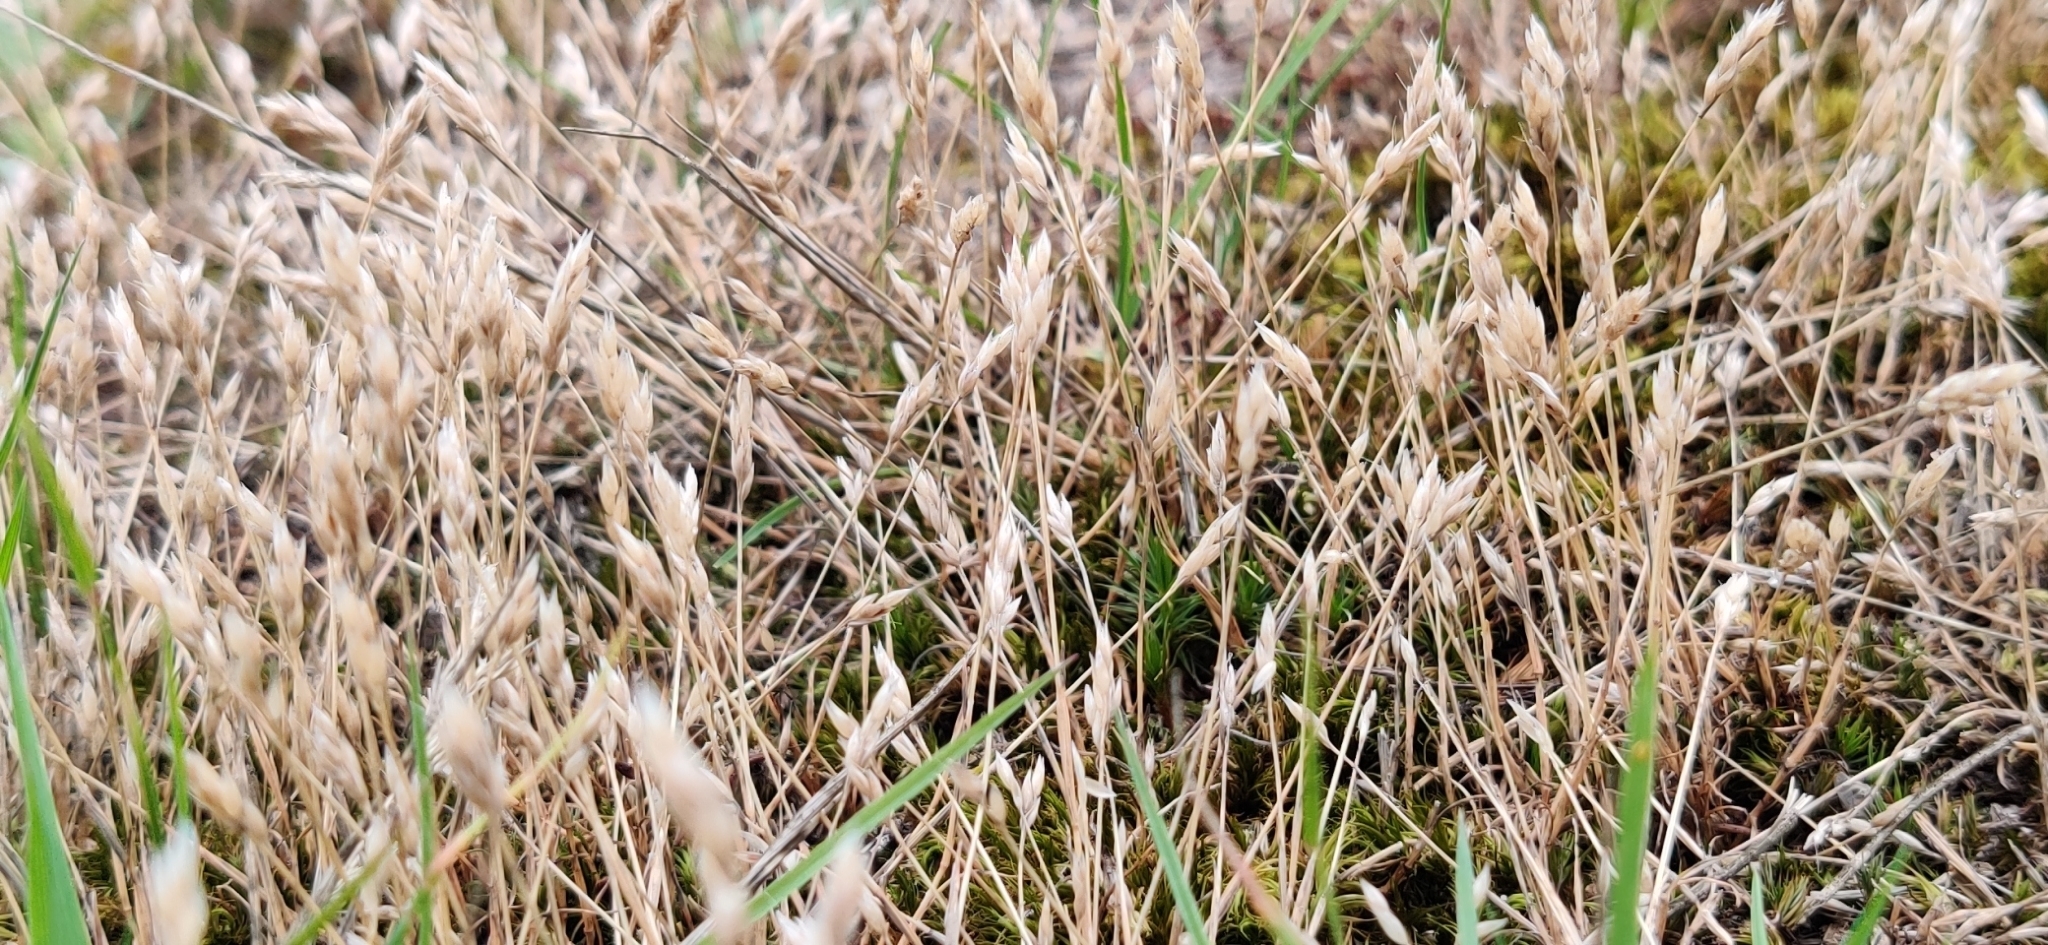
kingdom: Plantae
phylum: Tracheophyta
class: Liliopsida
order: Poales
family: Poaceae
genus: Aira
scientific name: Aira praecox
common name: Early hair-grass
